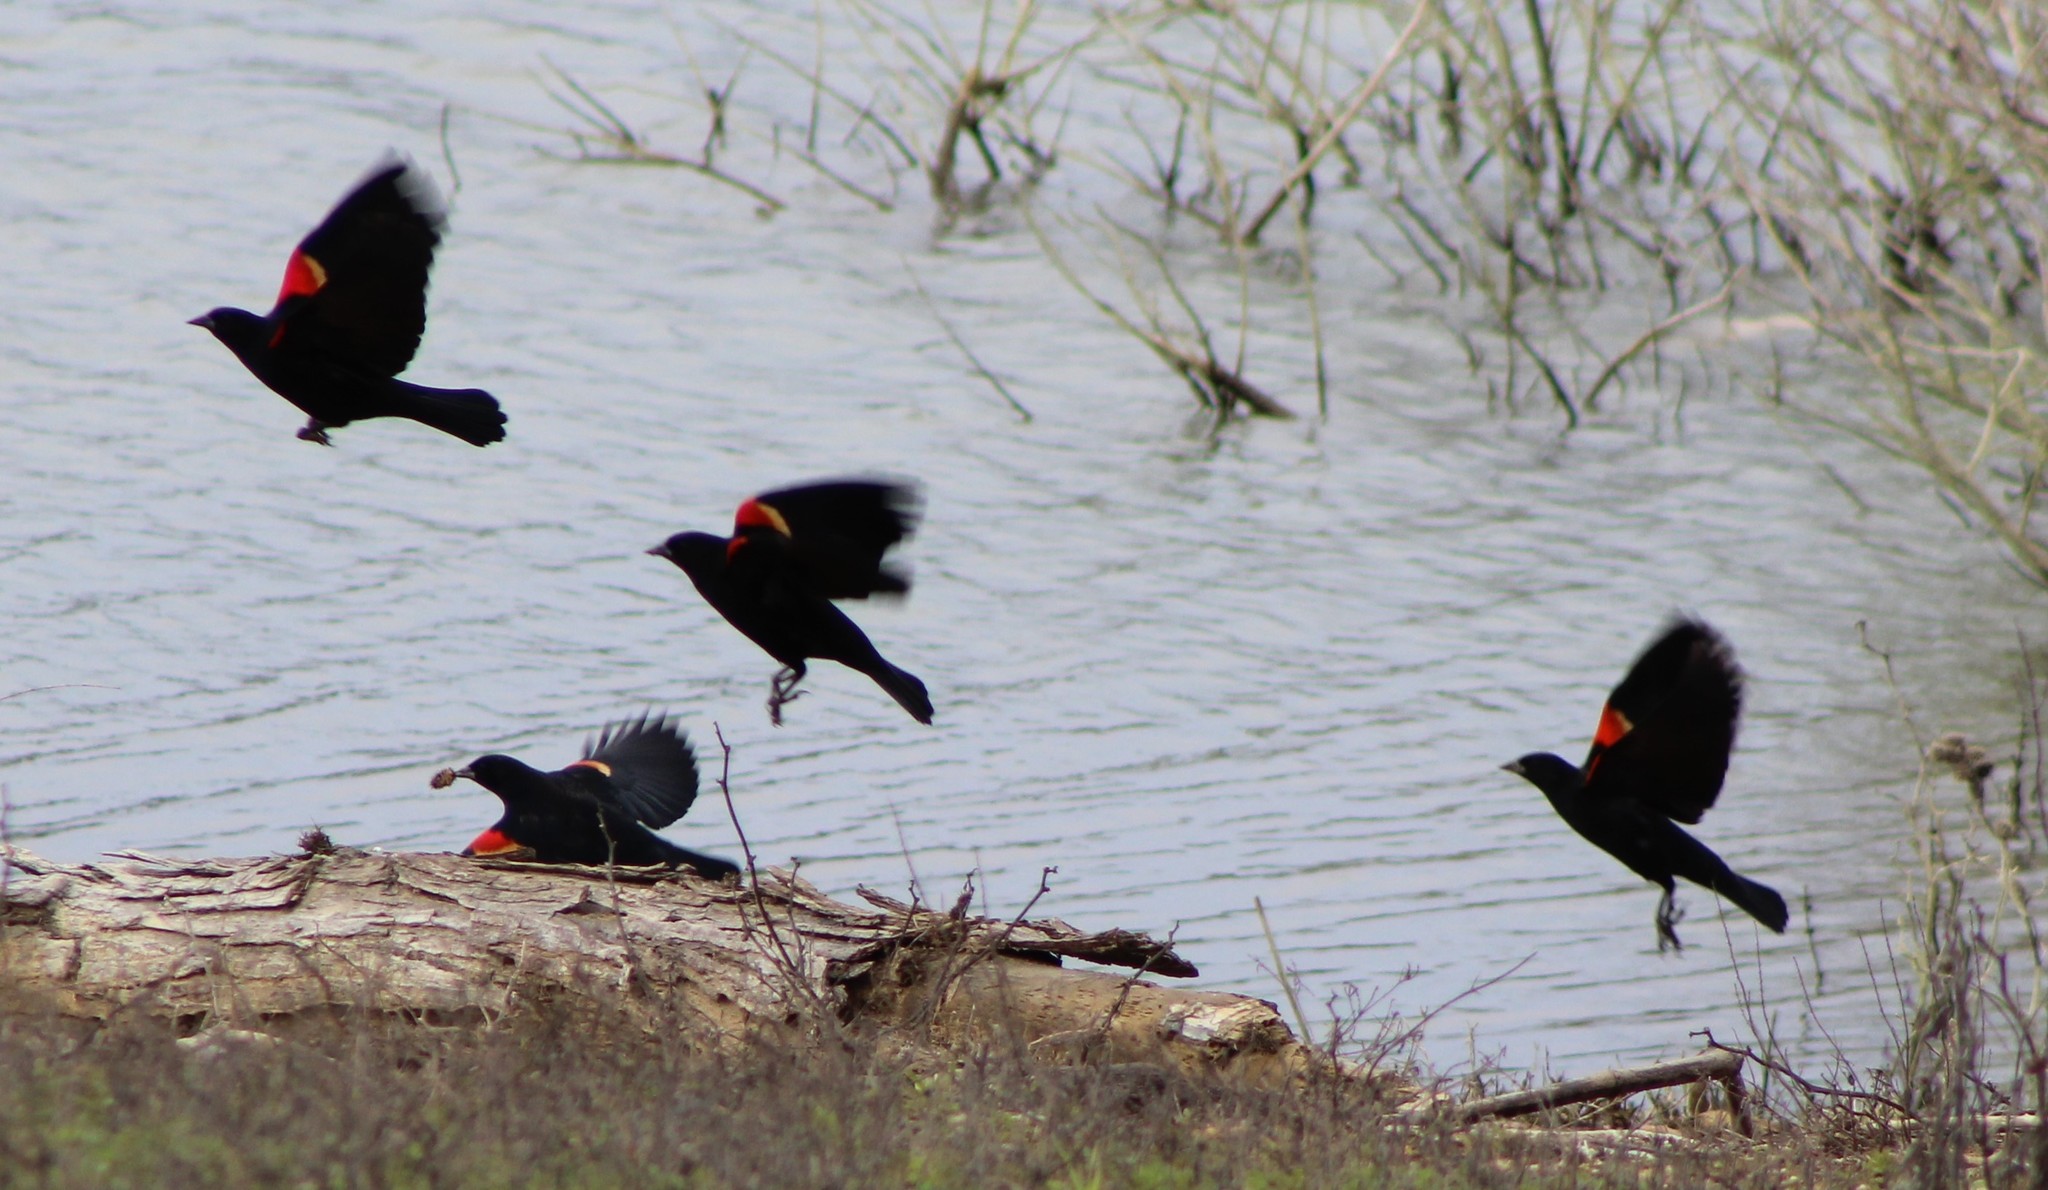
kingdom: Animalia
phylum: Chordata
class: Aves
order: Passeriformes
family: Icteridae
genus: Agelaius
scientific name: Agelaius phoeniceus
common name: Red-winged blackbird
